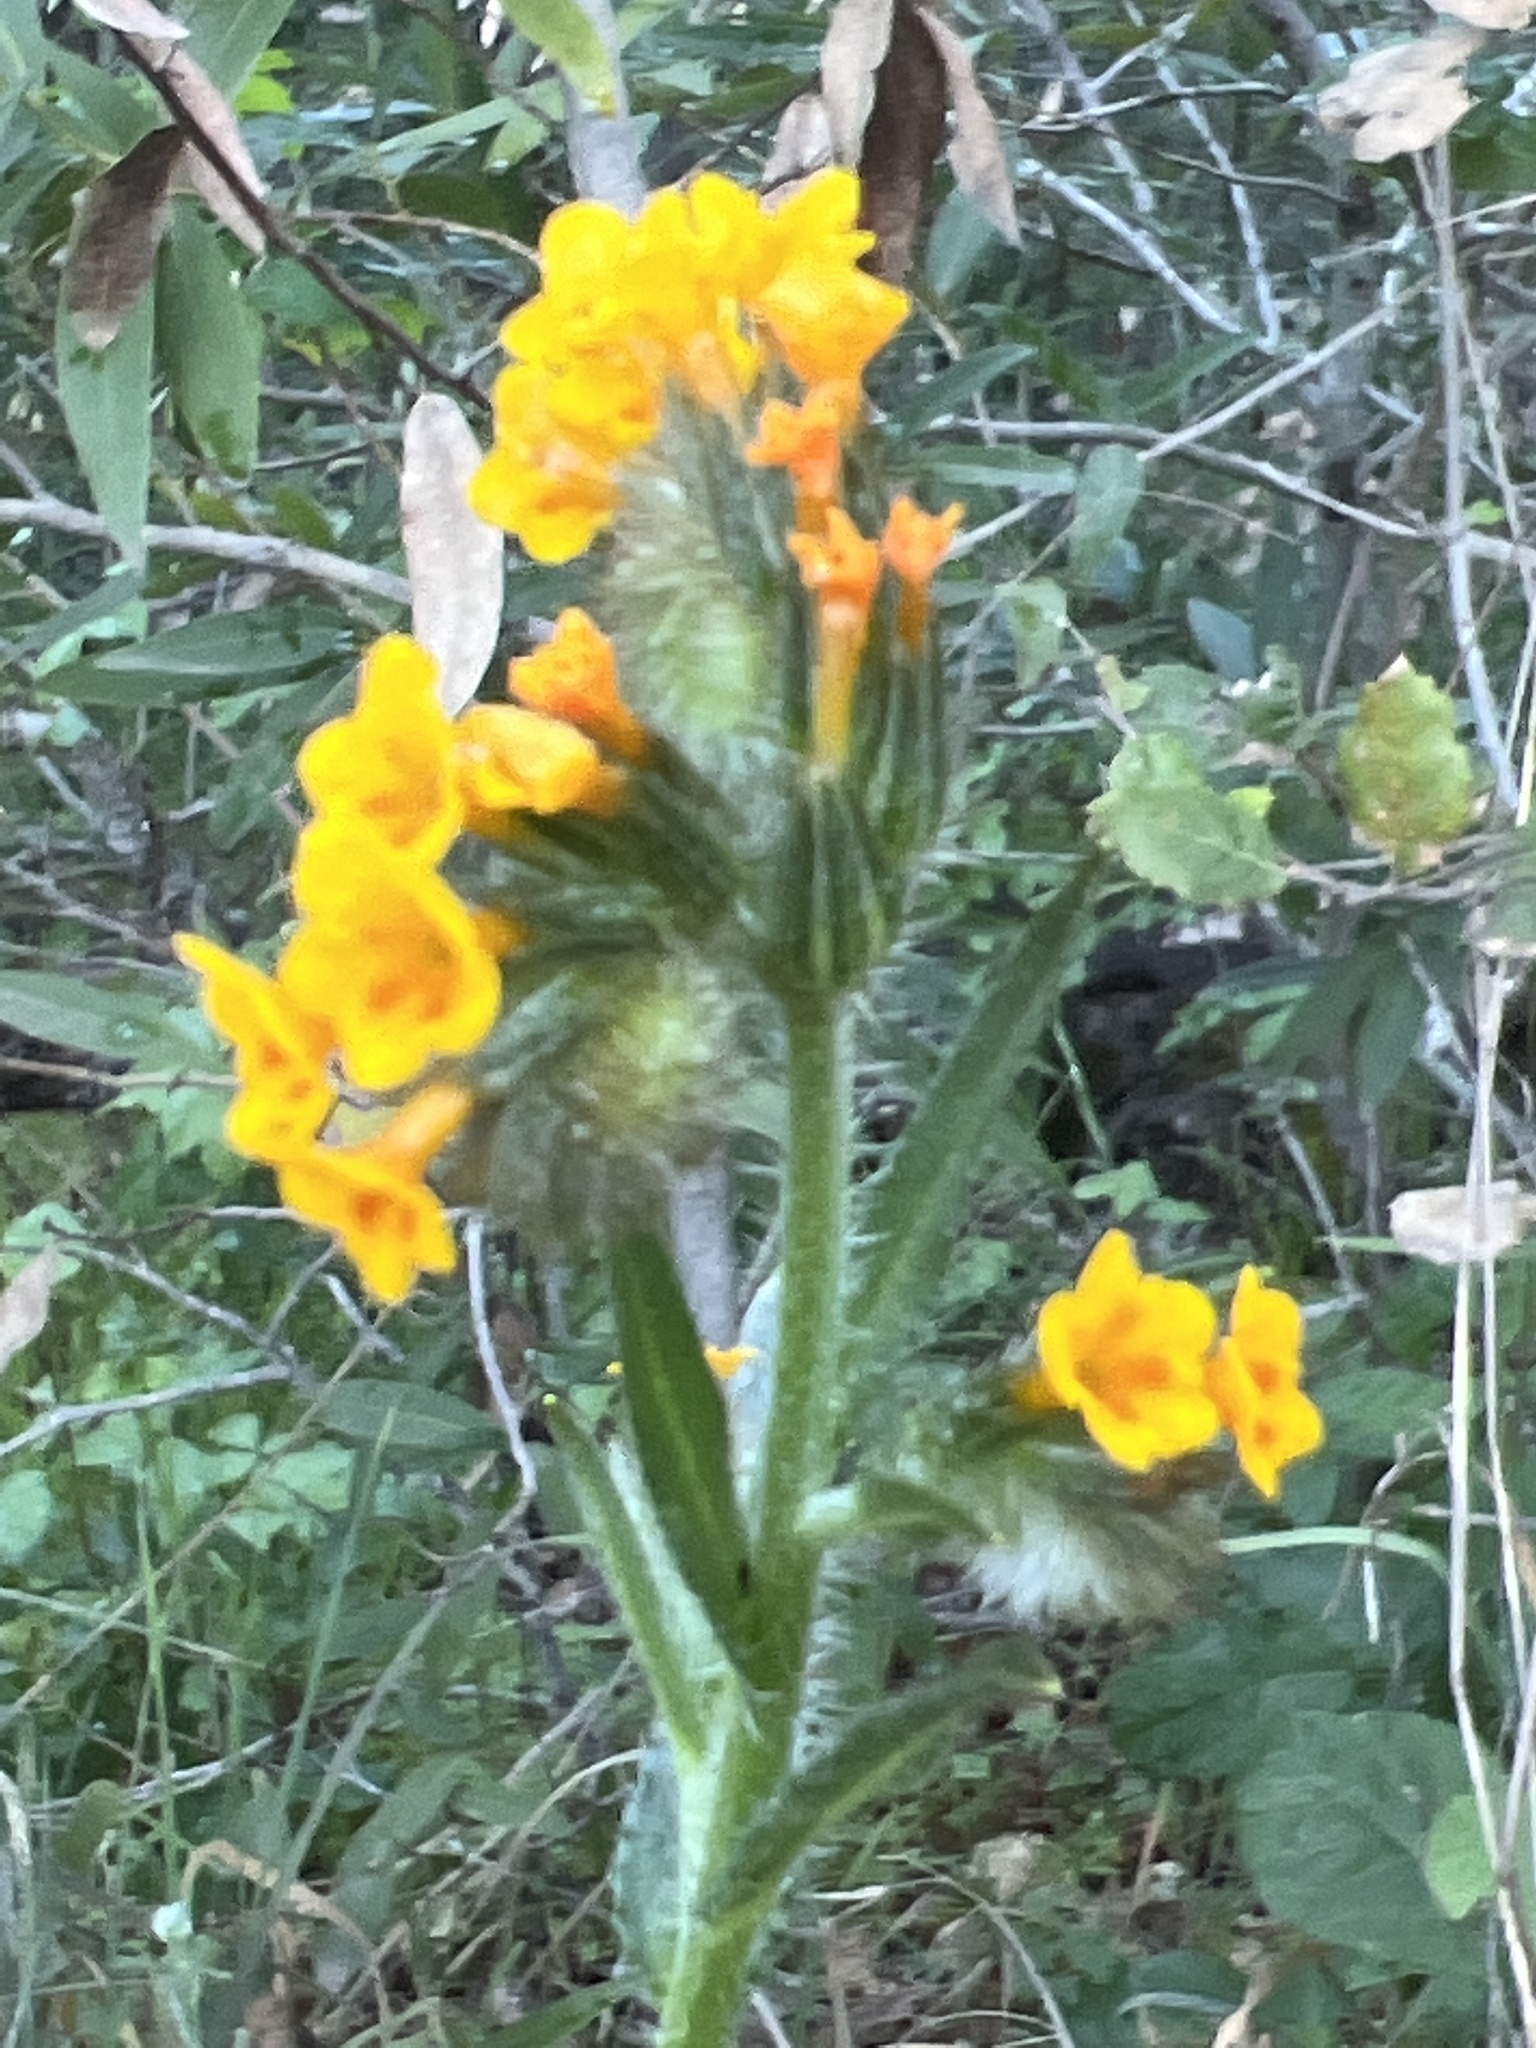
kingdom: Plantae
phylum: Tracheophyta
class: Magnoliopsida
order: Boraginales
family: Boraginaceae
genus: Amsinckia
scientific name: Amsinckia menziesii
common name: Menzies' fiddleneck
